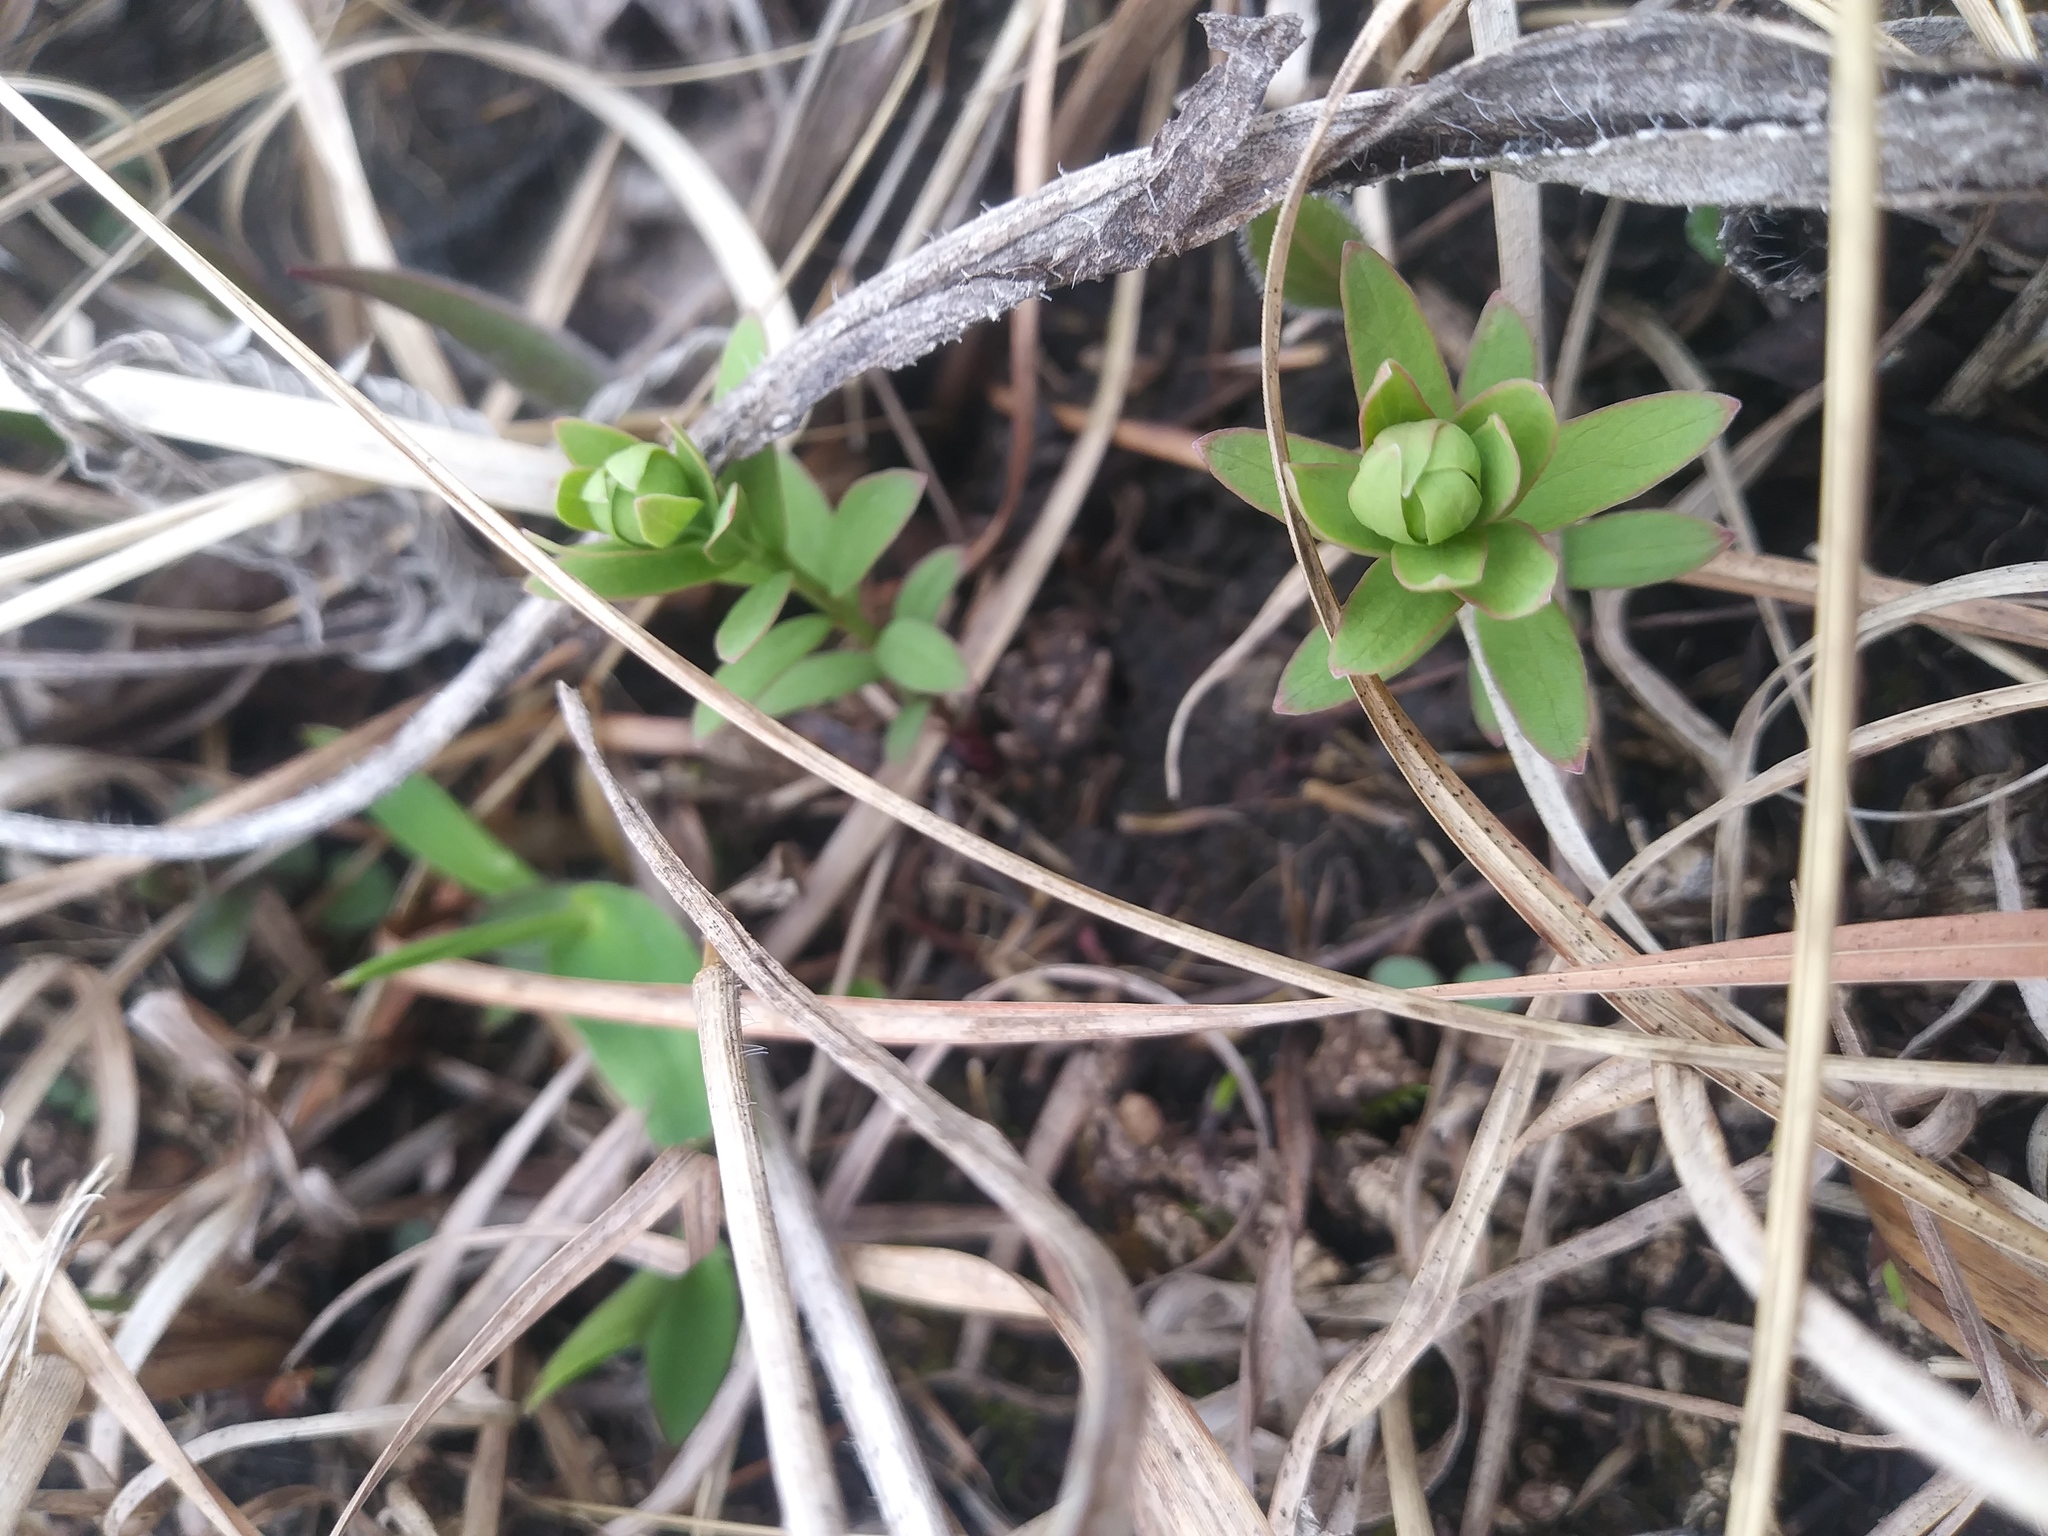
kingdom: Plantae
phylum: Tracheophyta
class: Magnoliopsida
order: Santalales
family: Comandraceae
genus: Comandra
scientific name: Comandra umbellata
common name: Bastard toadflax
